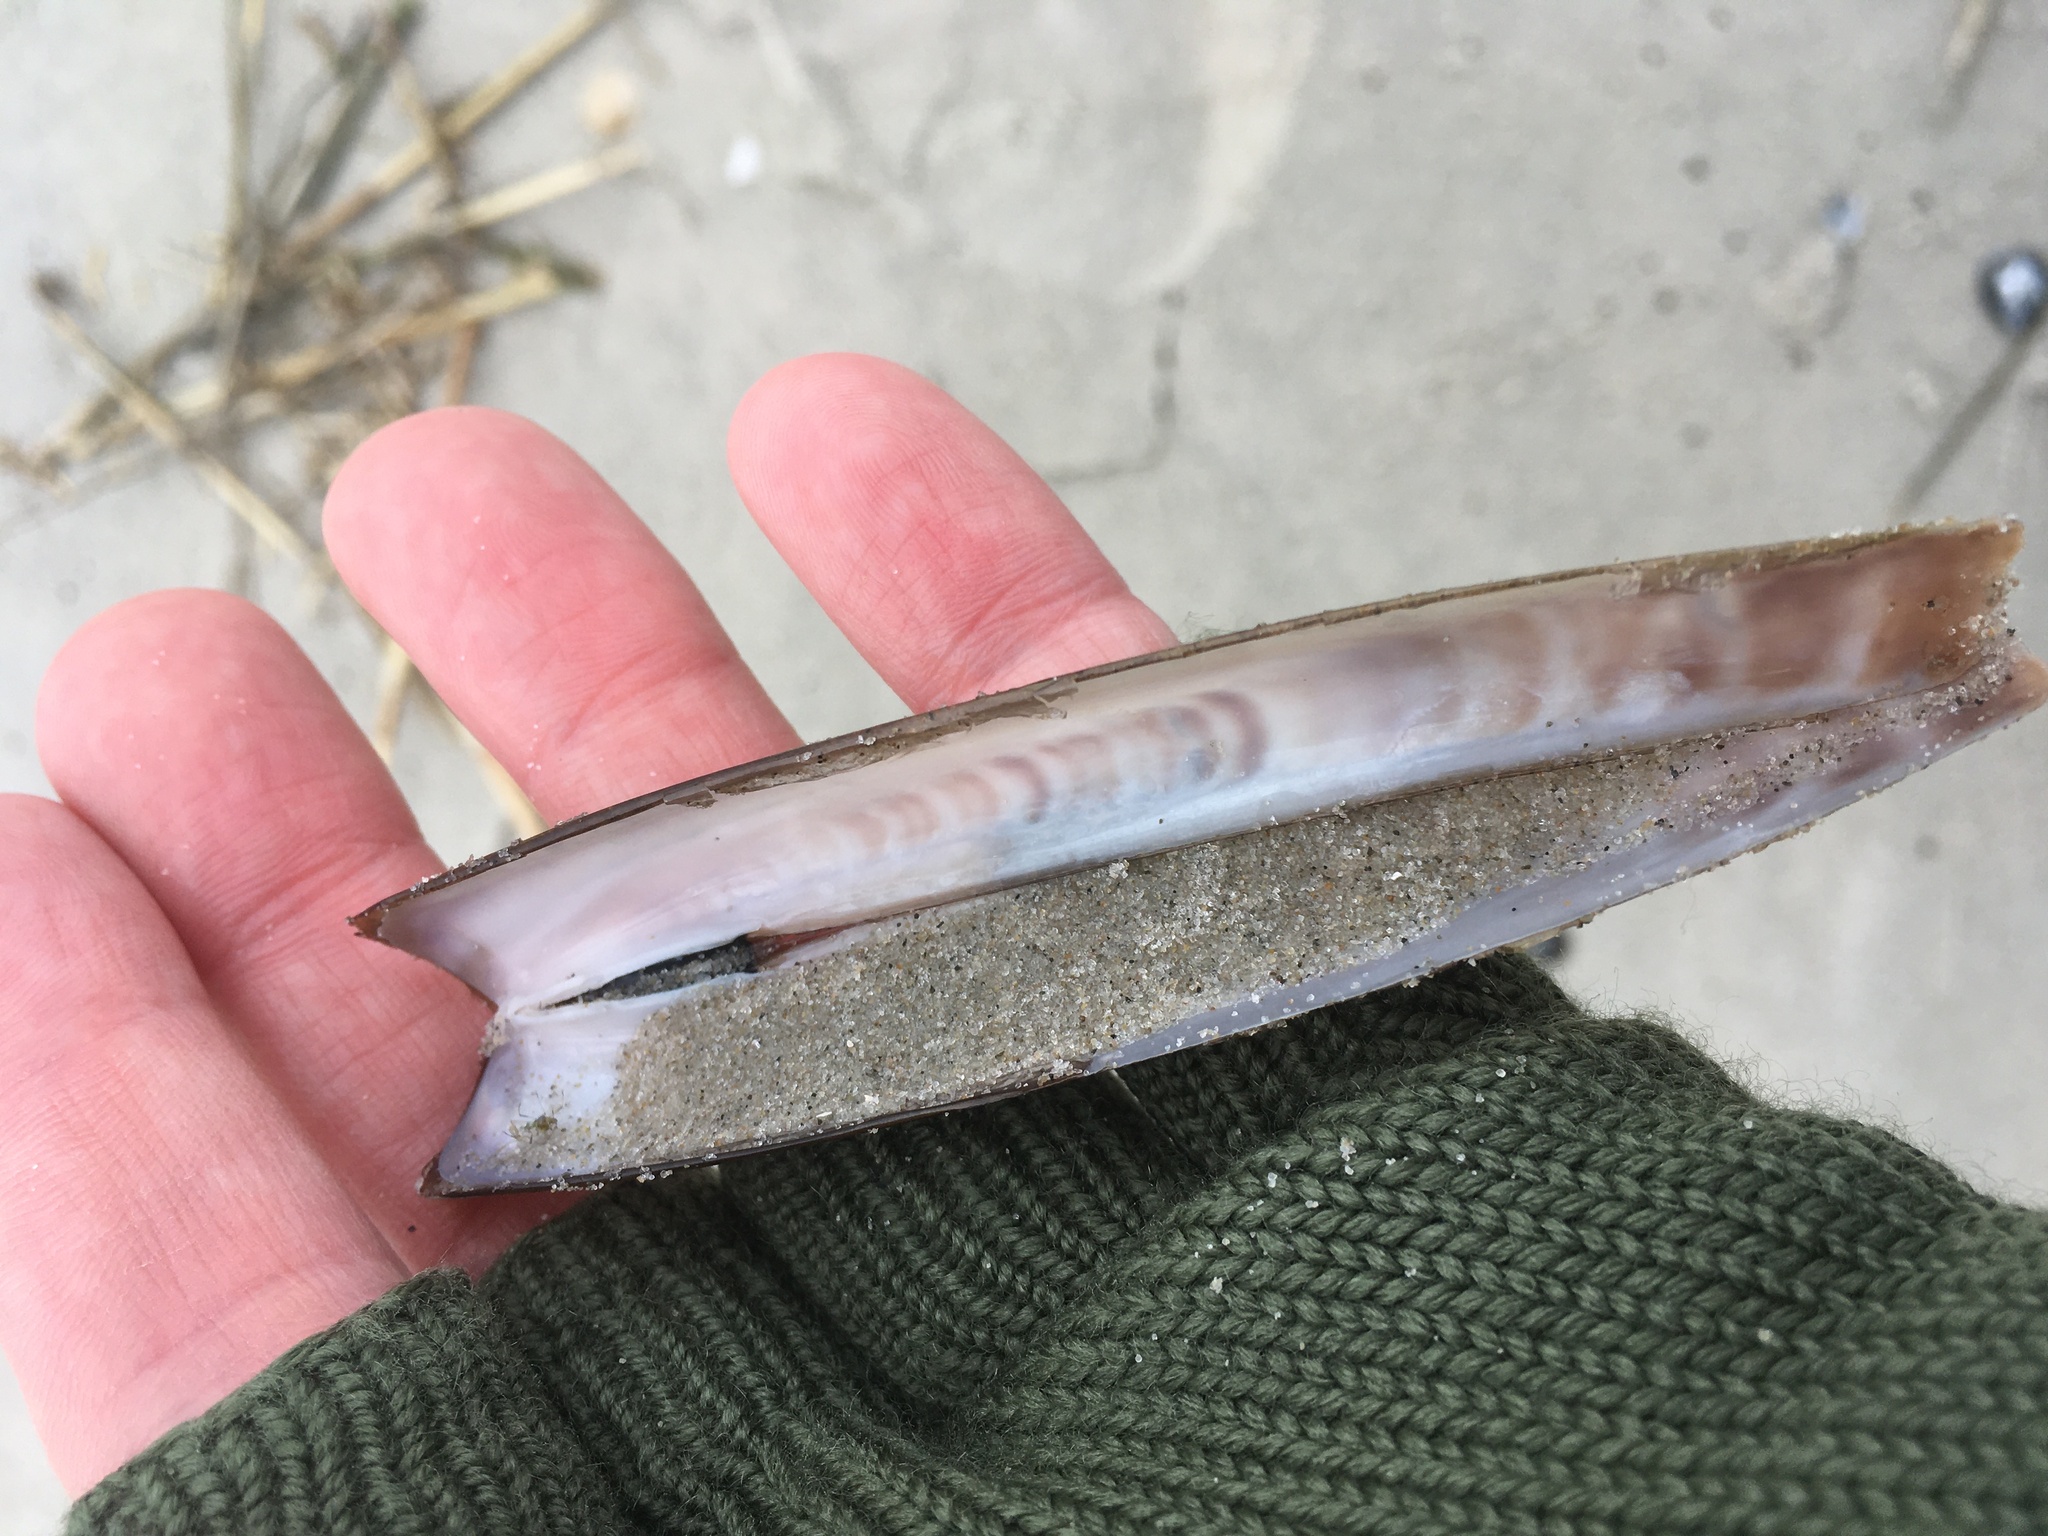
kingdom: Animalia
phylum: Mollusca
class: Bivalvia
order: Adapedonta
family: Pharidae
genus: Ensis
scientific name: Ensis leei
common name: American jack knife clam
